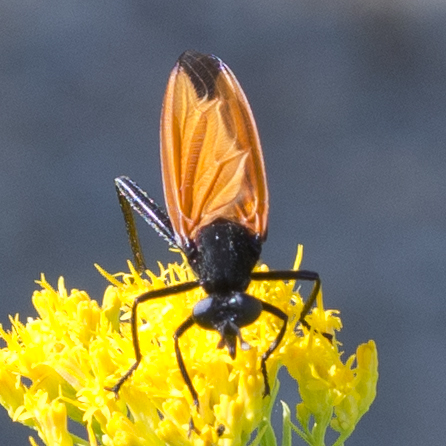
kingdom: Animalia
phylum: Arthropoda
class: Insecta
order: Diptera
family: Mydidae
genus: Mydas
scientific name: Mydas xanthopterus
